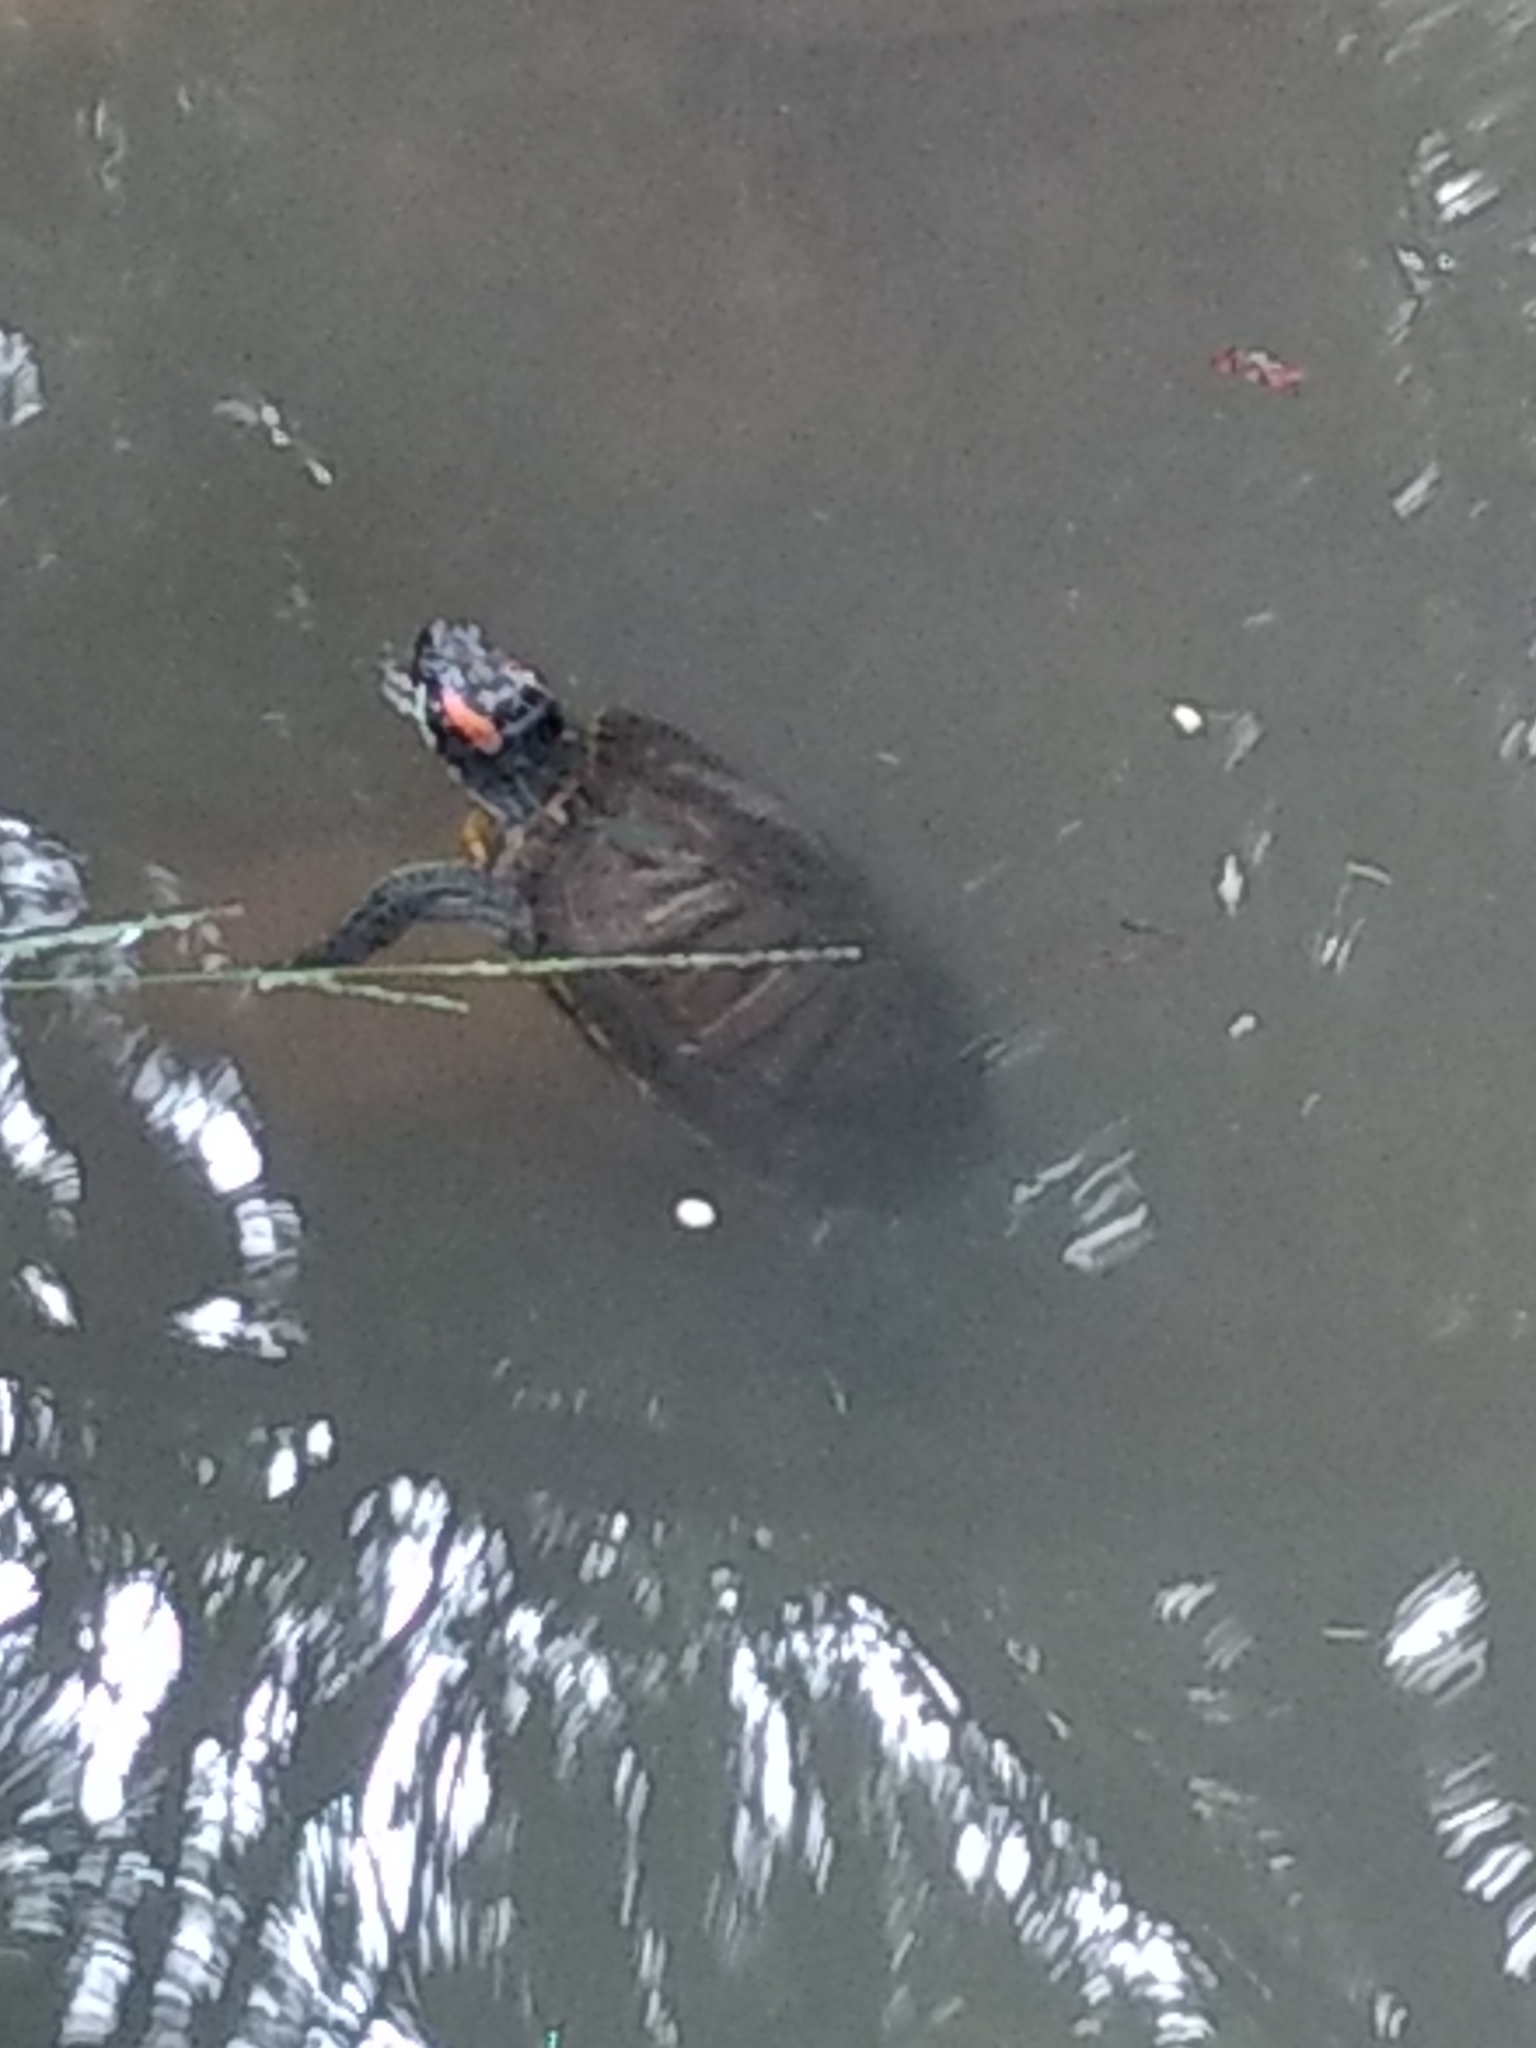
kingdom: Animalia
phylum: Chordata
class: Testudines
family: Emydidae
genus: Trachemys
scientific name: Trachemys scripta
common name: Slider
